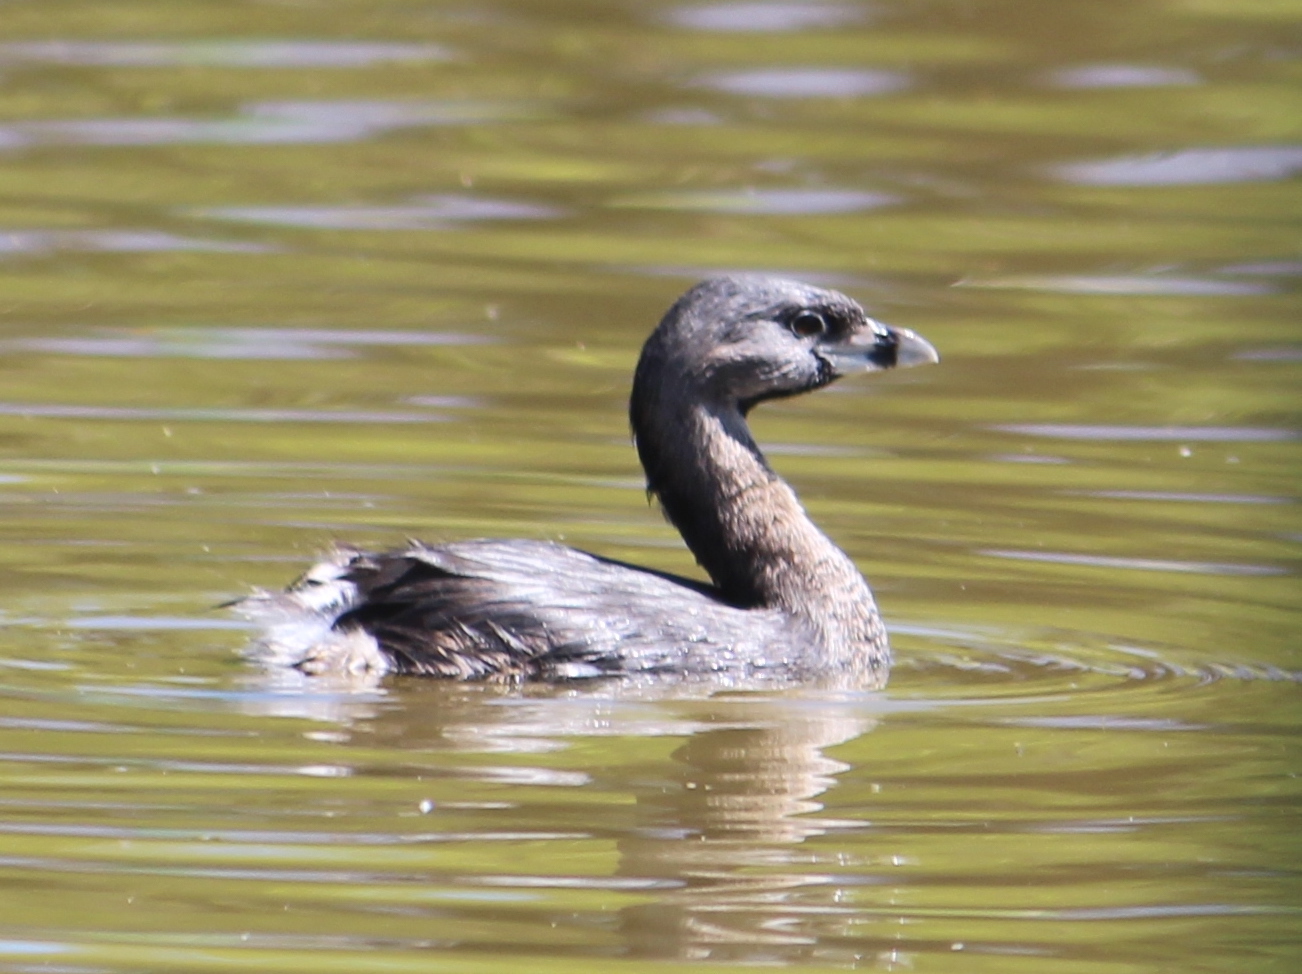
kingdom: Animalia
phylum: Chordata
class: Aves
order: Podicipediformes
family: Podicipedidae
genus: Podilymbus
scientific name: Podilymbus podiceps
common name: Pied-billed grebe
